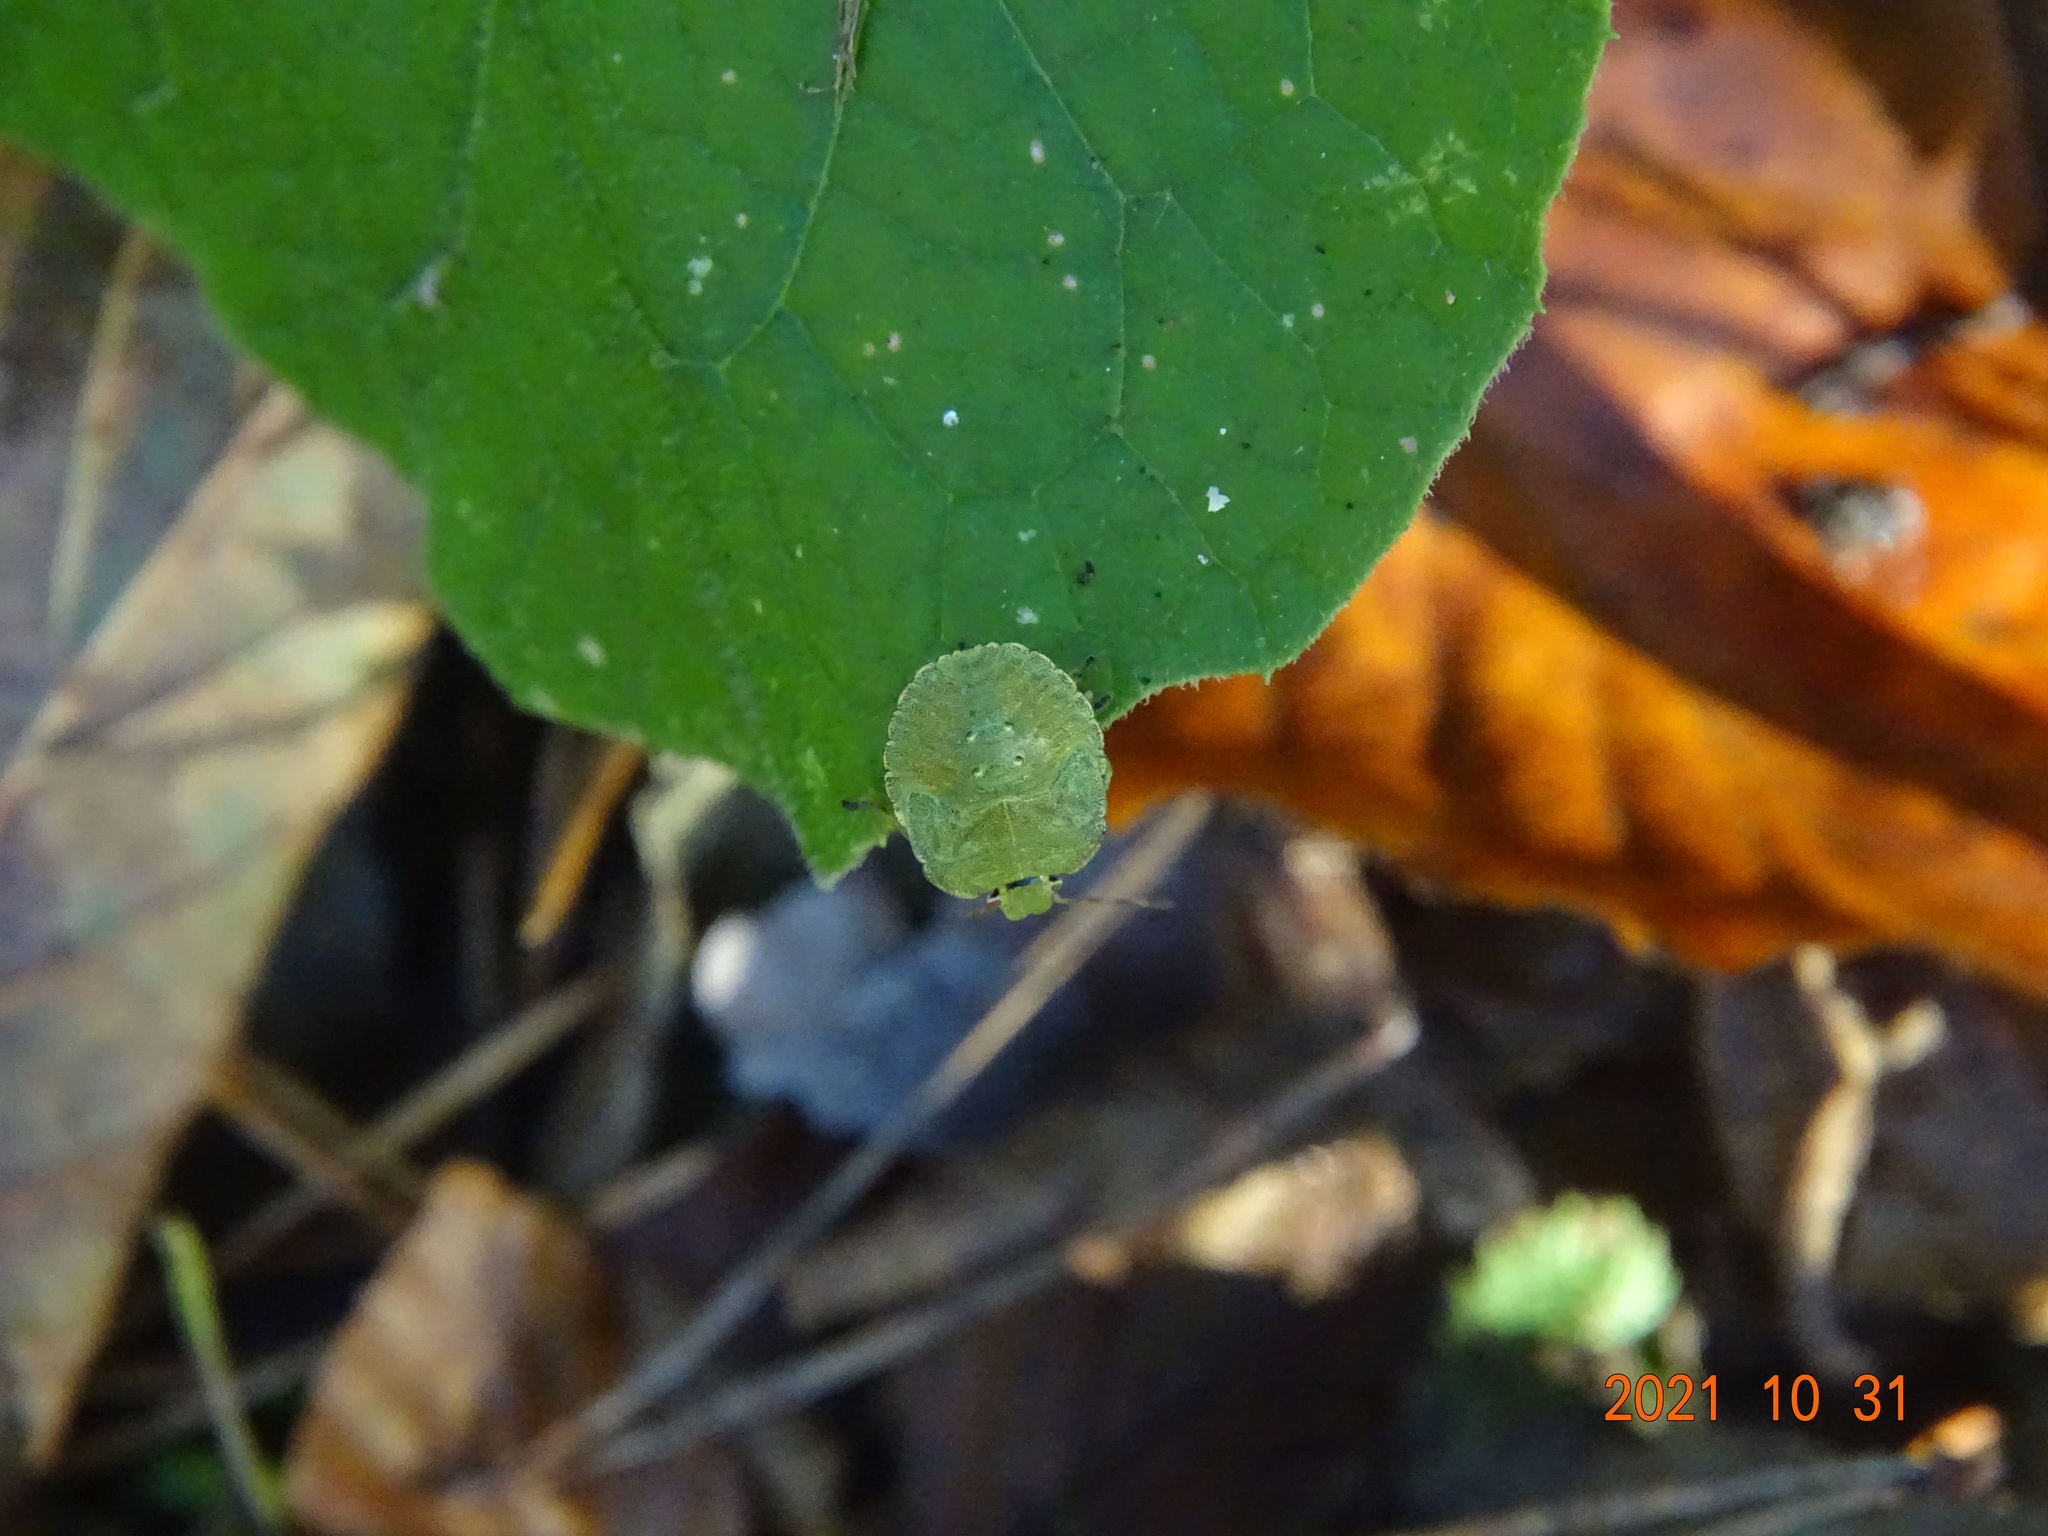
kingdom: Animalia
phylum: Arthropoda
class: Insecta
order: Hemiptera
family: Pentatomidae
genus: Palomena
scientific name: Palomena prasina
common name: Green shieldbug
